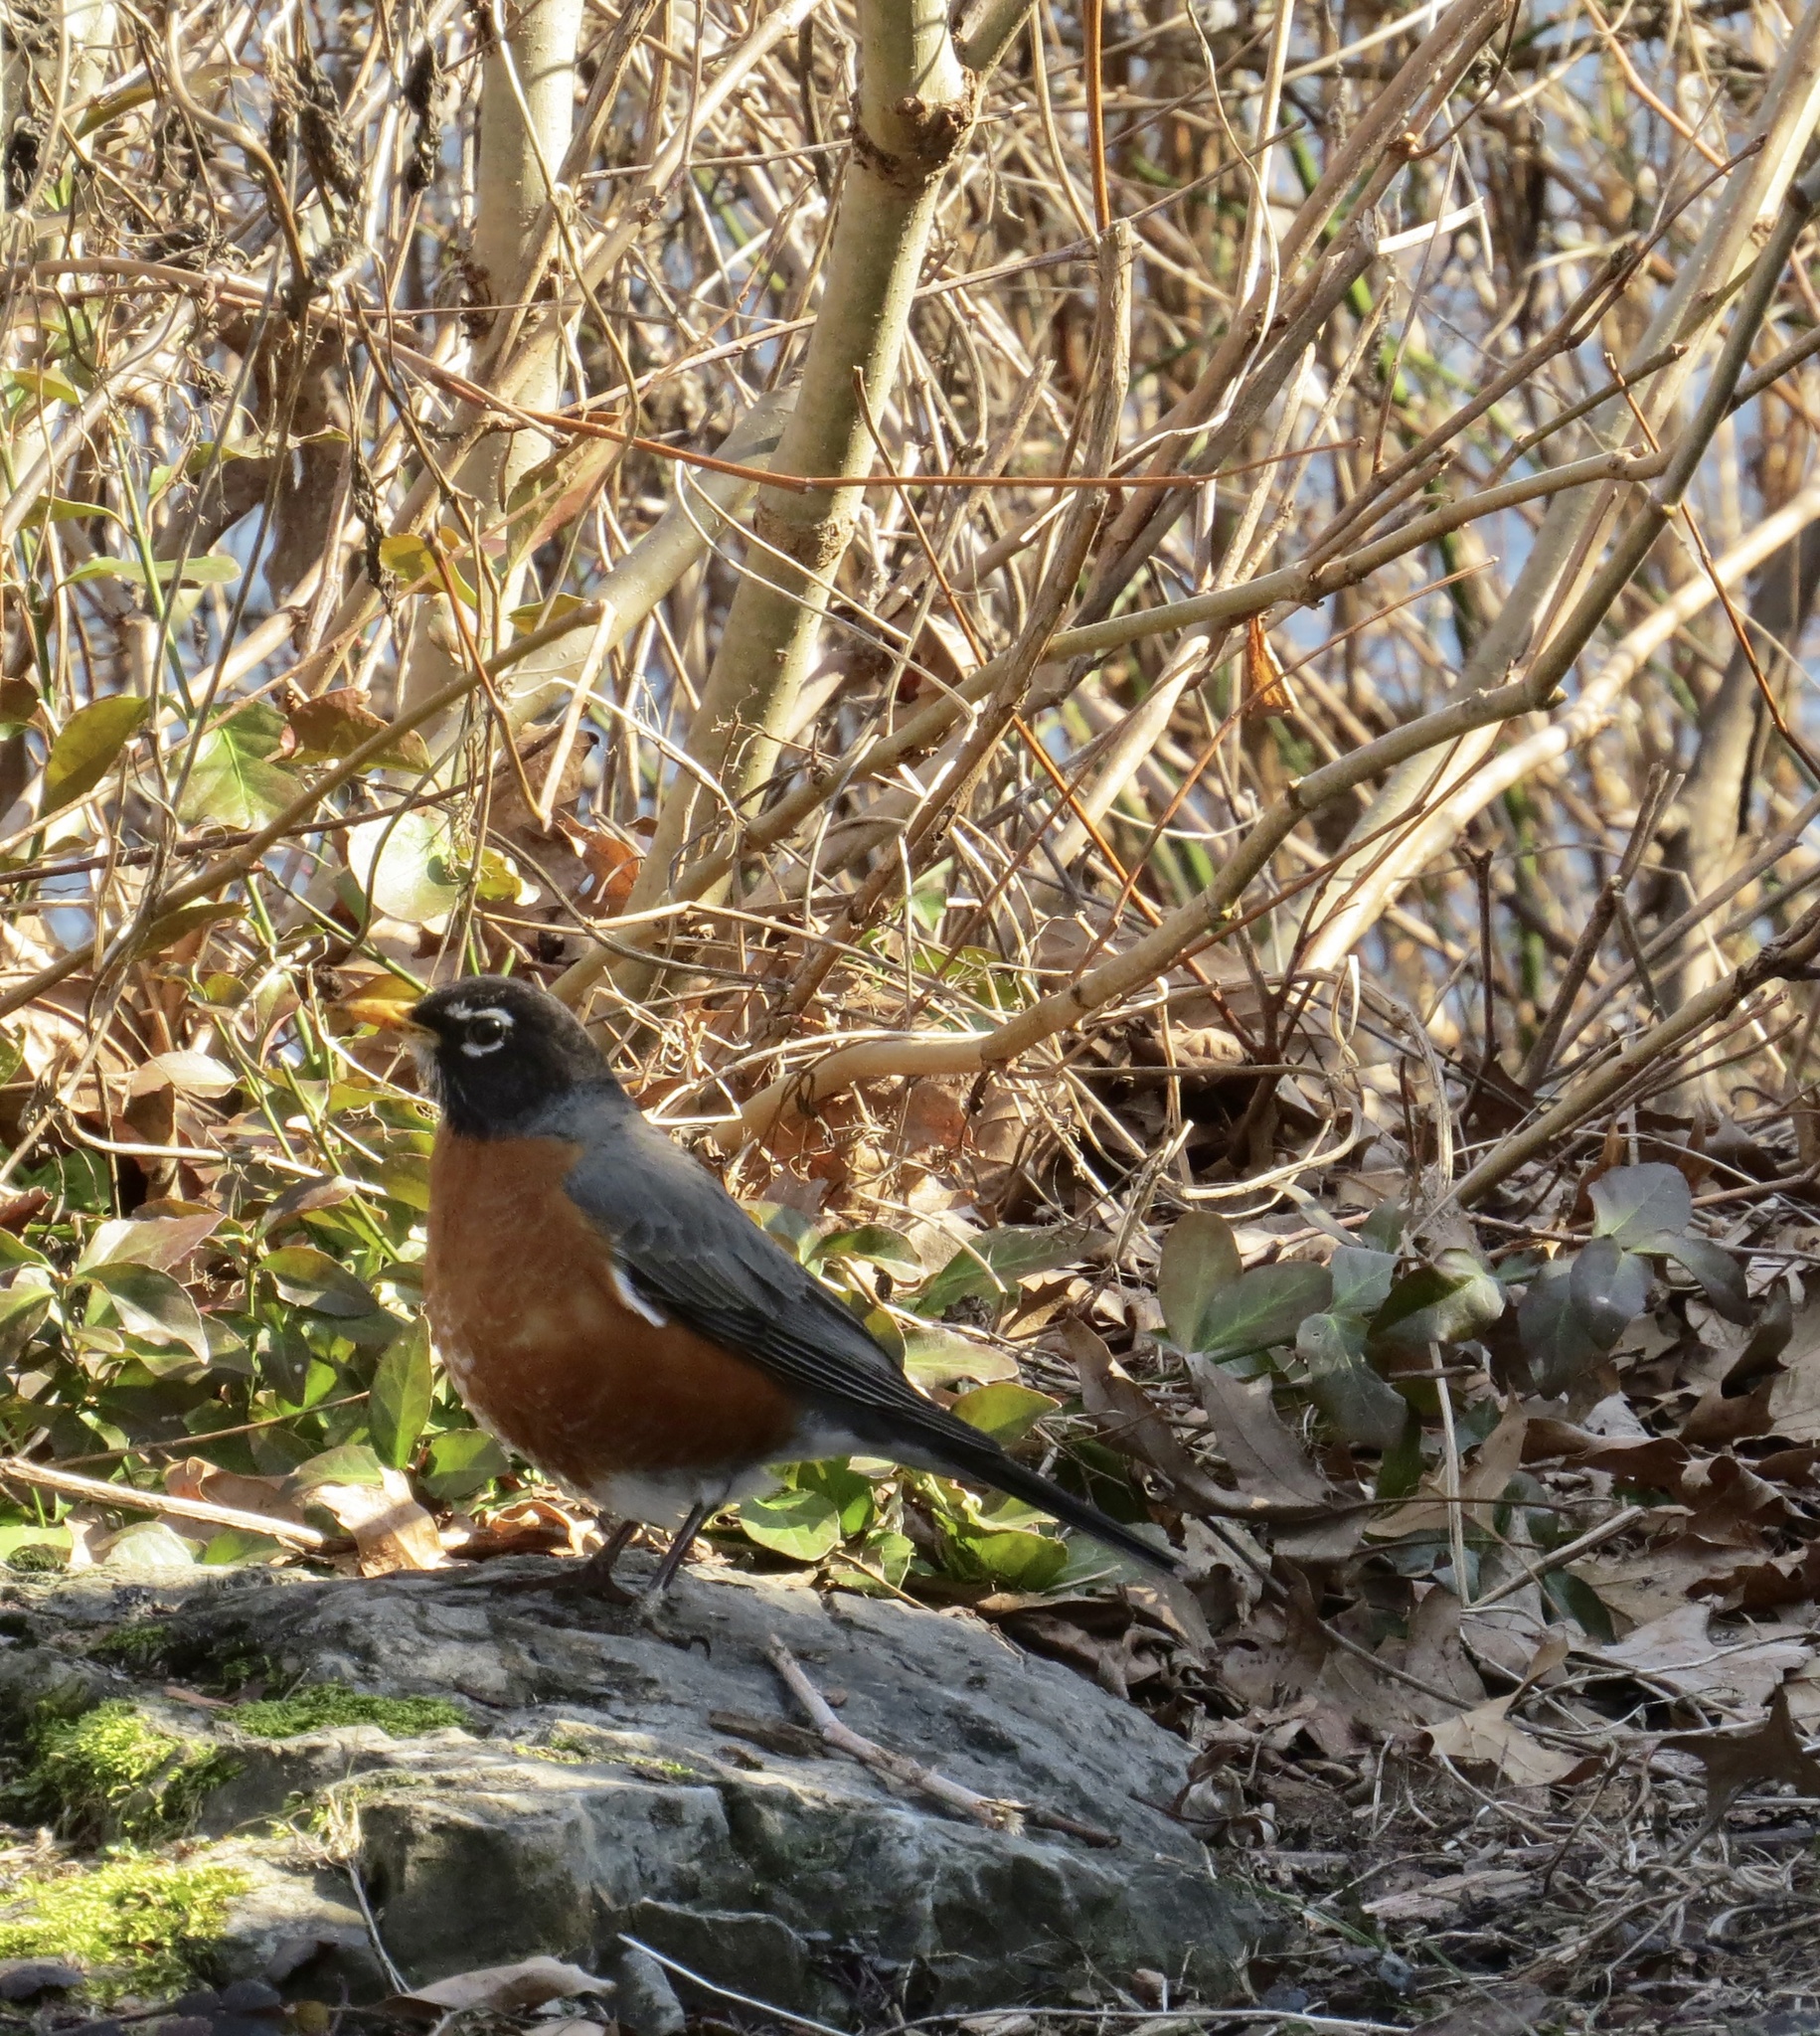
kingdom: Animalia
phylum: Chordata
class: Aves
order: Passeriformes
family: Turdidae
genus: Turdus
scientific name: Turdus migratorius
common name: American robin
